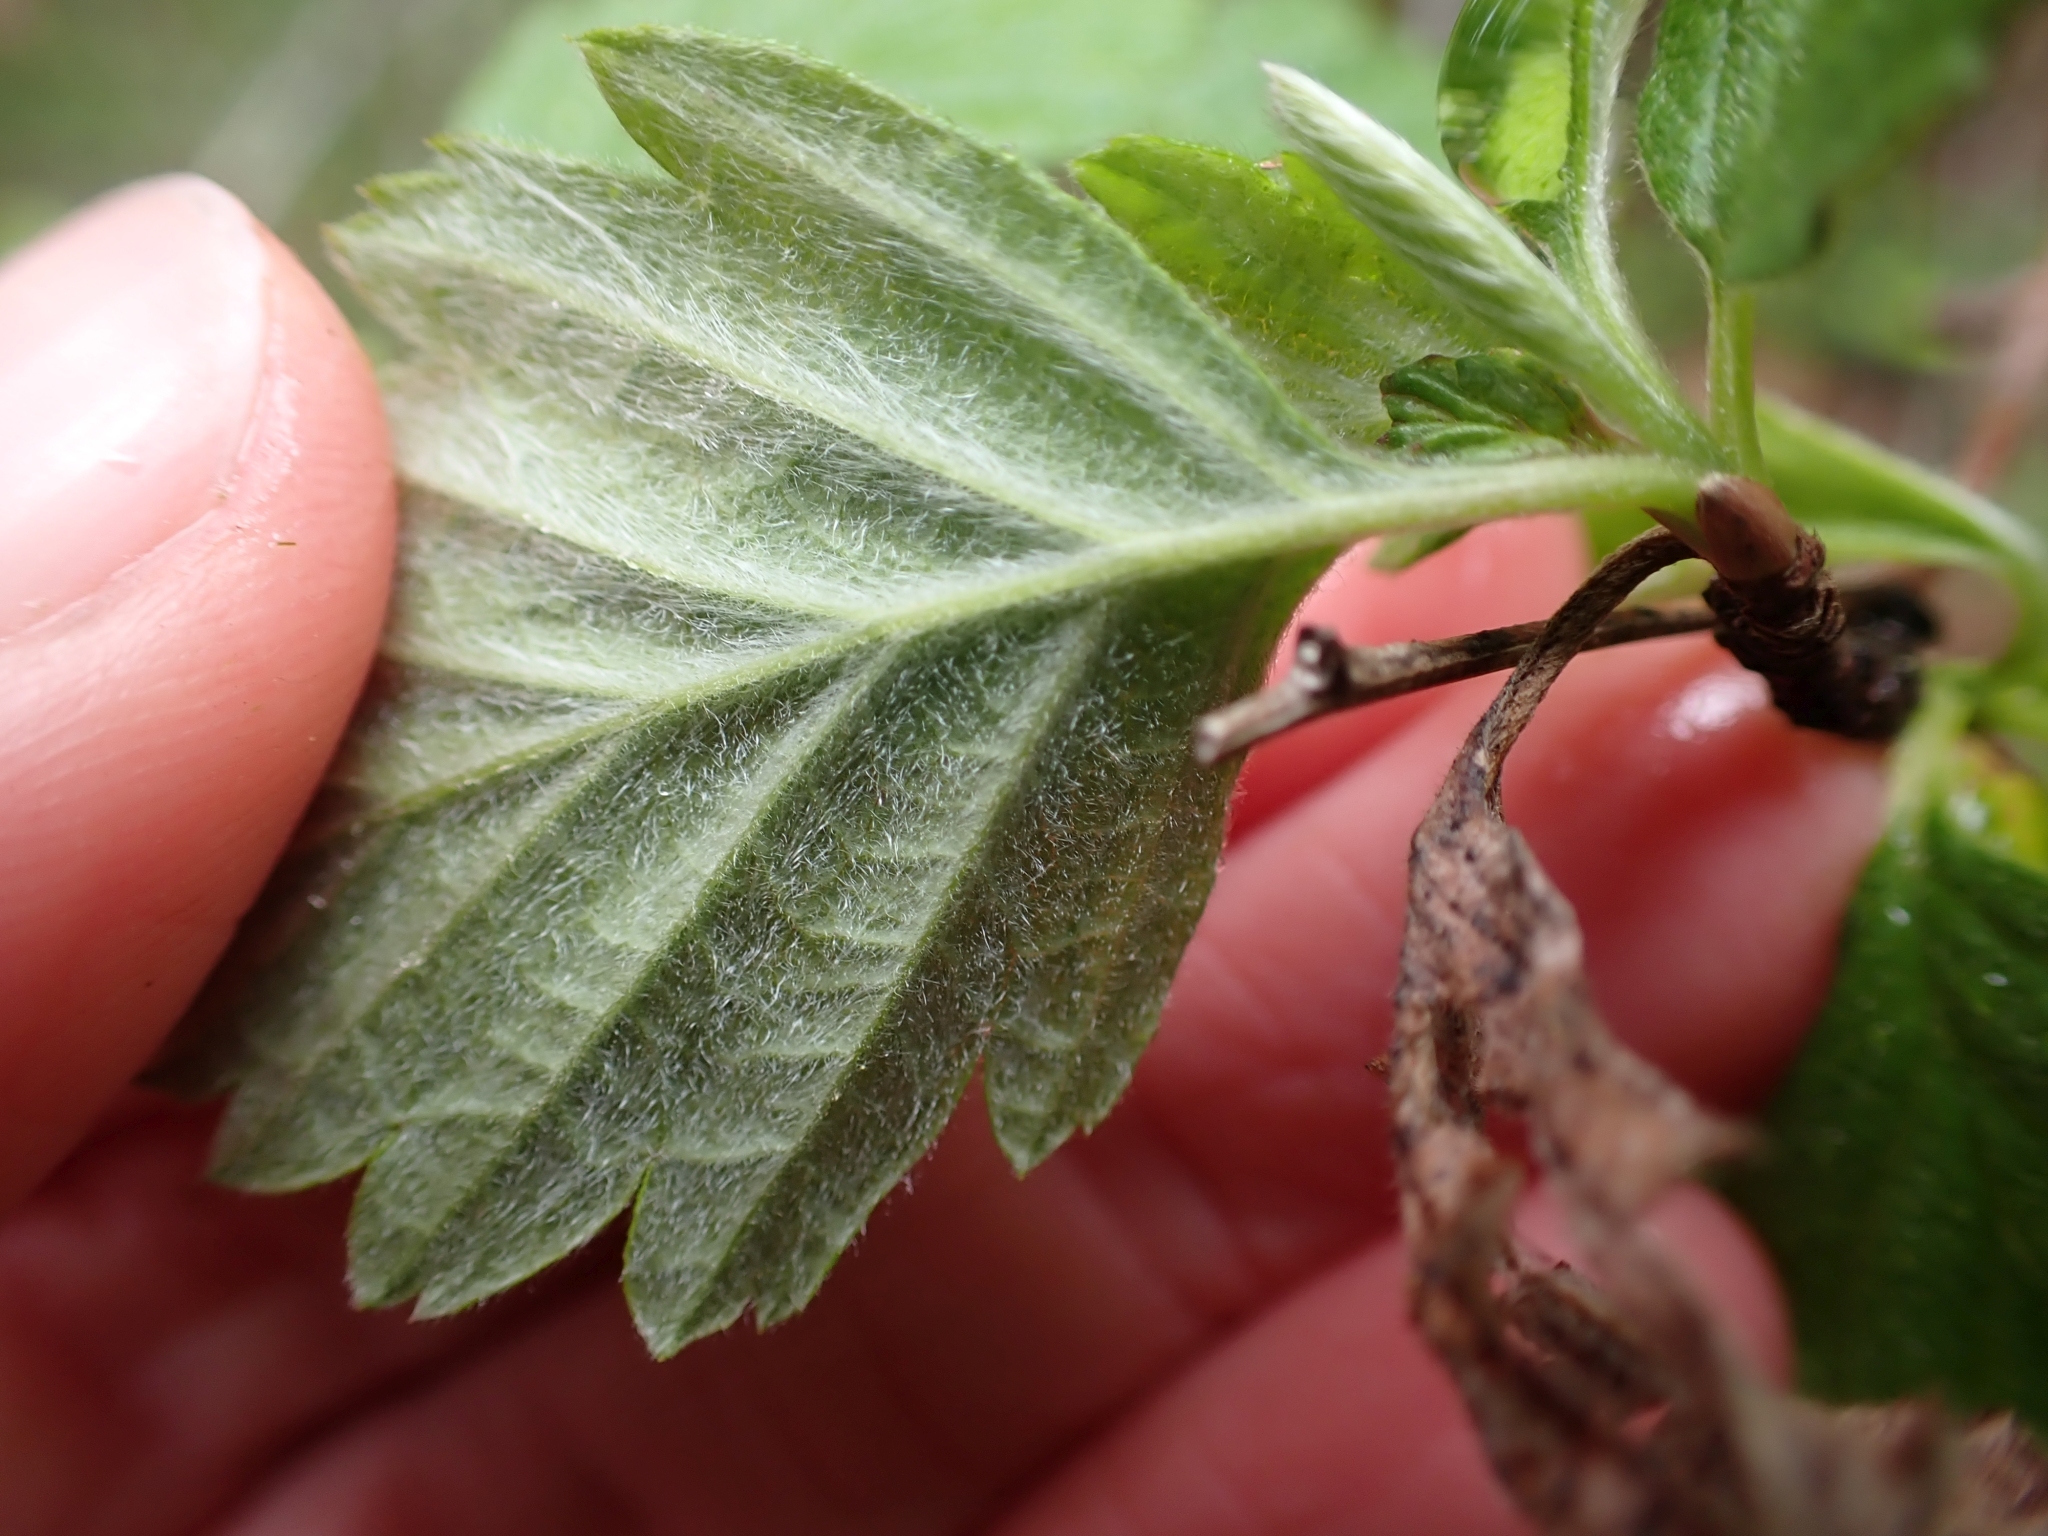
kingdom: Plantae
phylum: Tracheophyta
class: Magnoliopsida
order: Rosales
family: Rosaceae
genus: Holodiscus
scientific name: Holodiscus discolor
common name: Oceanspray
